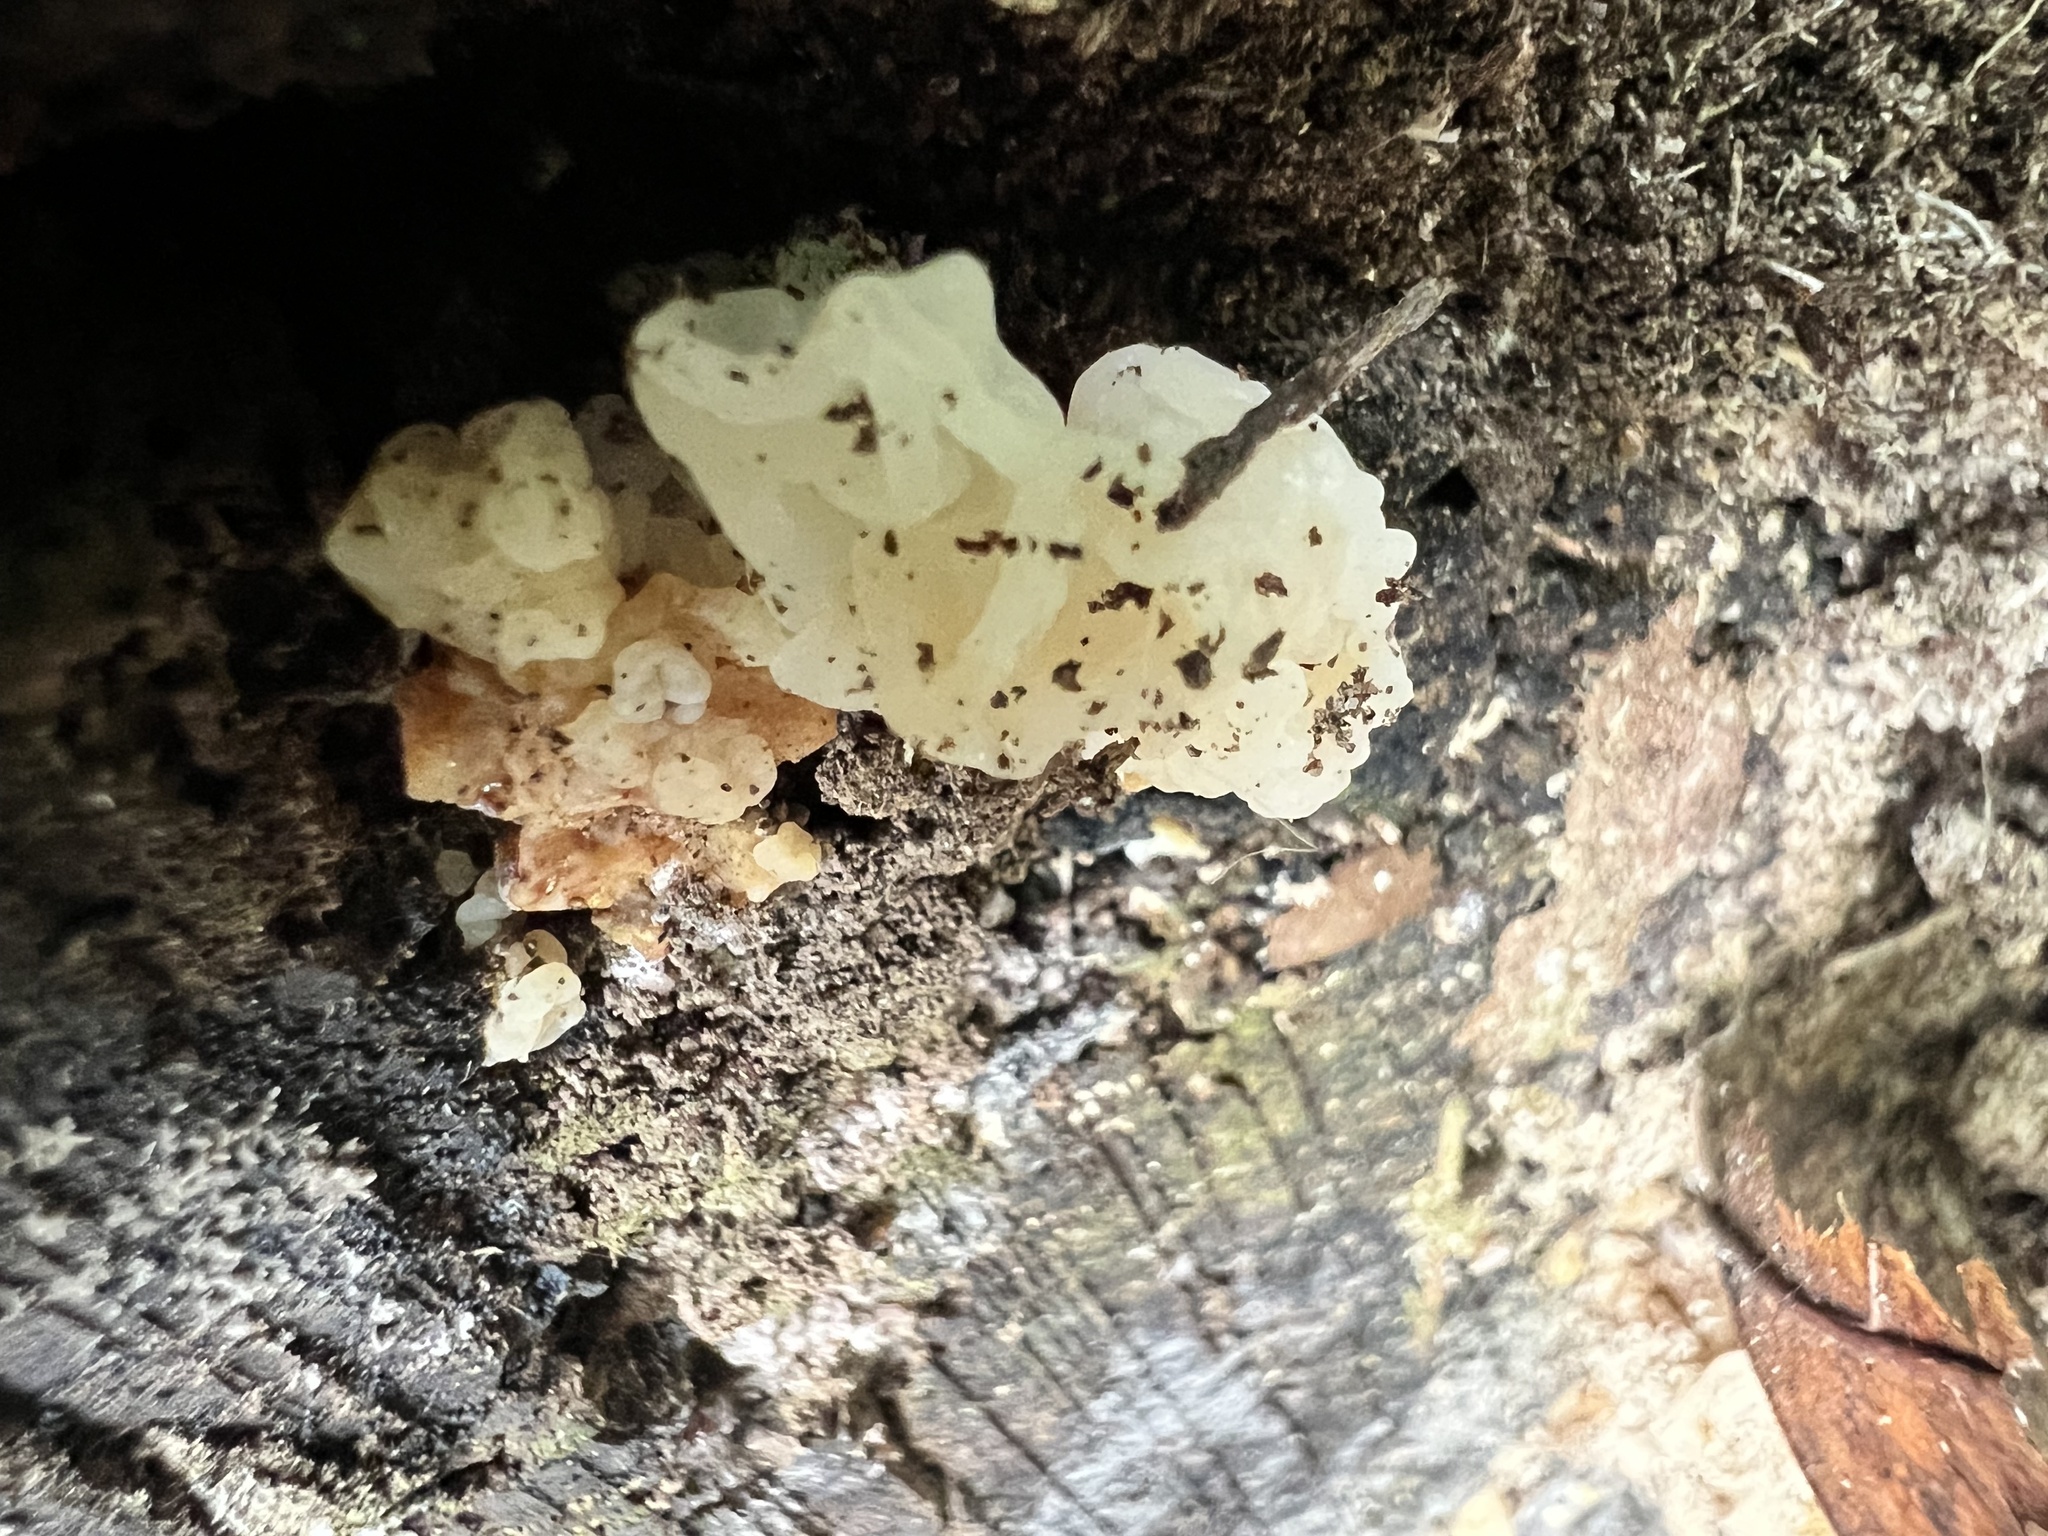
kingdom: Fungi
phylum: Basidiomycota
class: Agaricomycetes
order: Auriculariales
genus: Ductifera
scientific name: Ductifera pululahuana
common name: White jelly fungus
